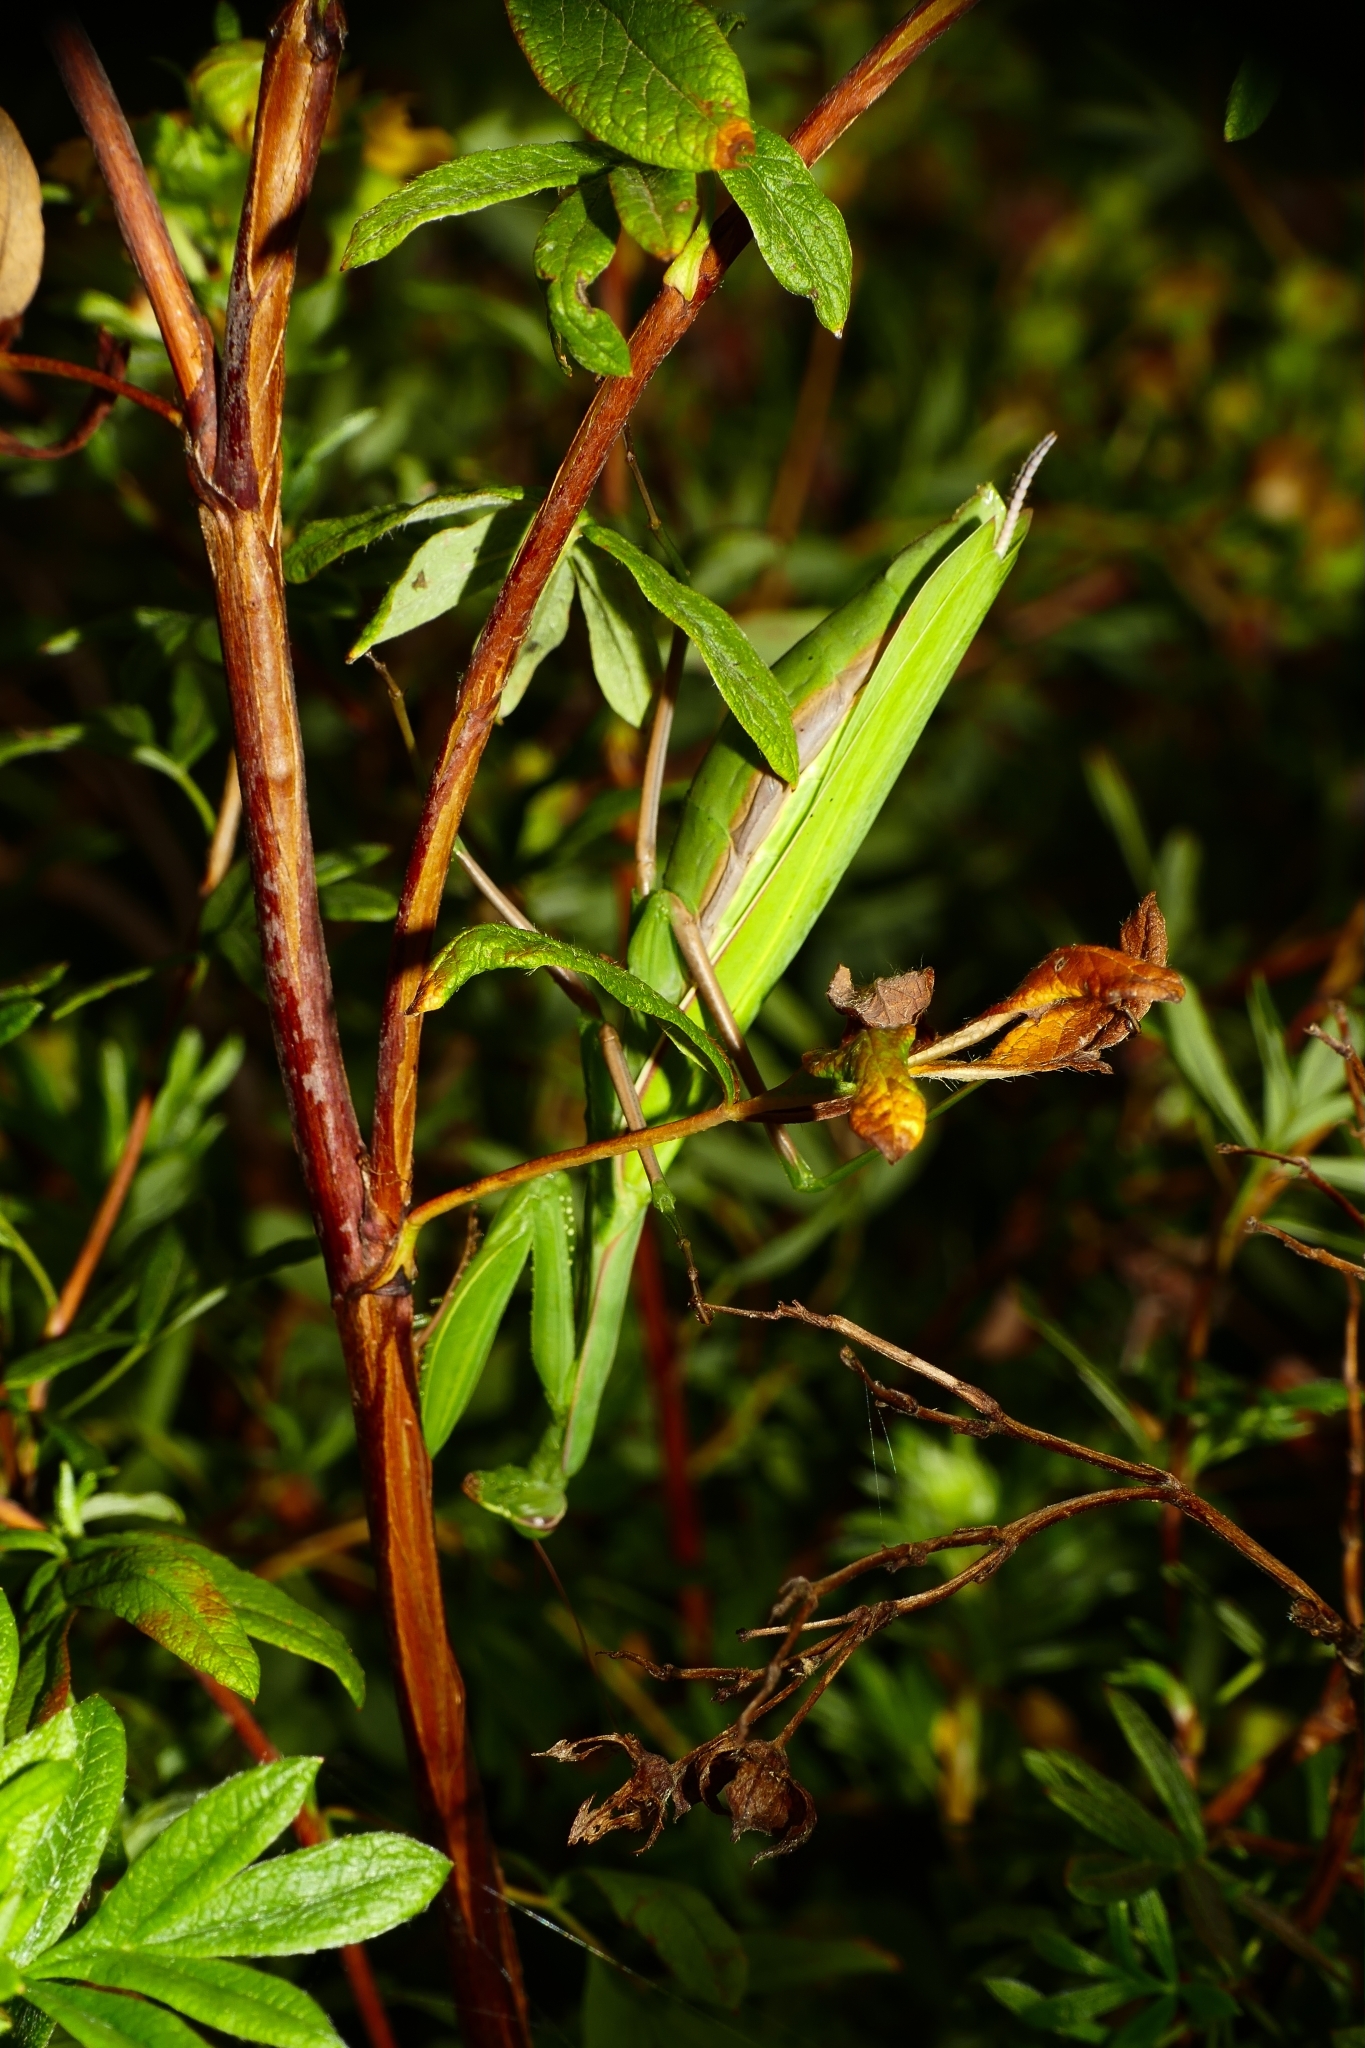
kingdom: Animalia
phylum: Arthropoda
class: Insecta
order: Mantodea
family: Mantidae
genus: Mantis
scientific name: Mantis religiosa
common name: Praying mantis
